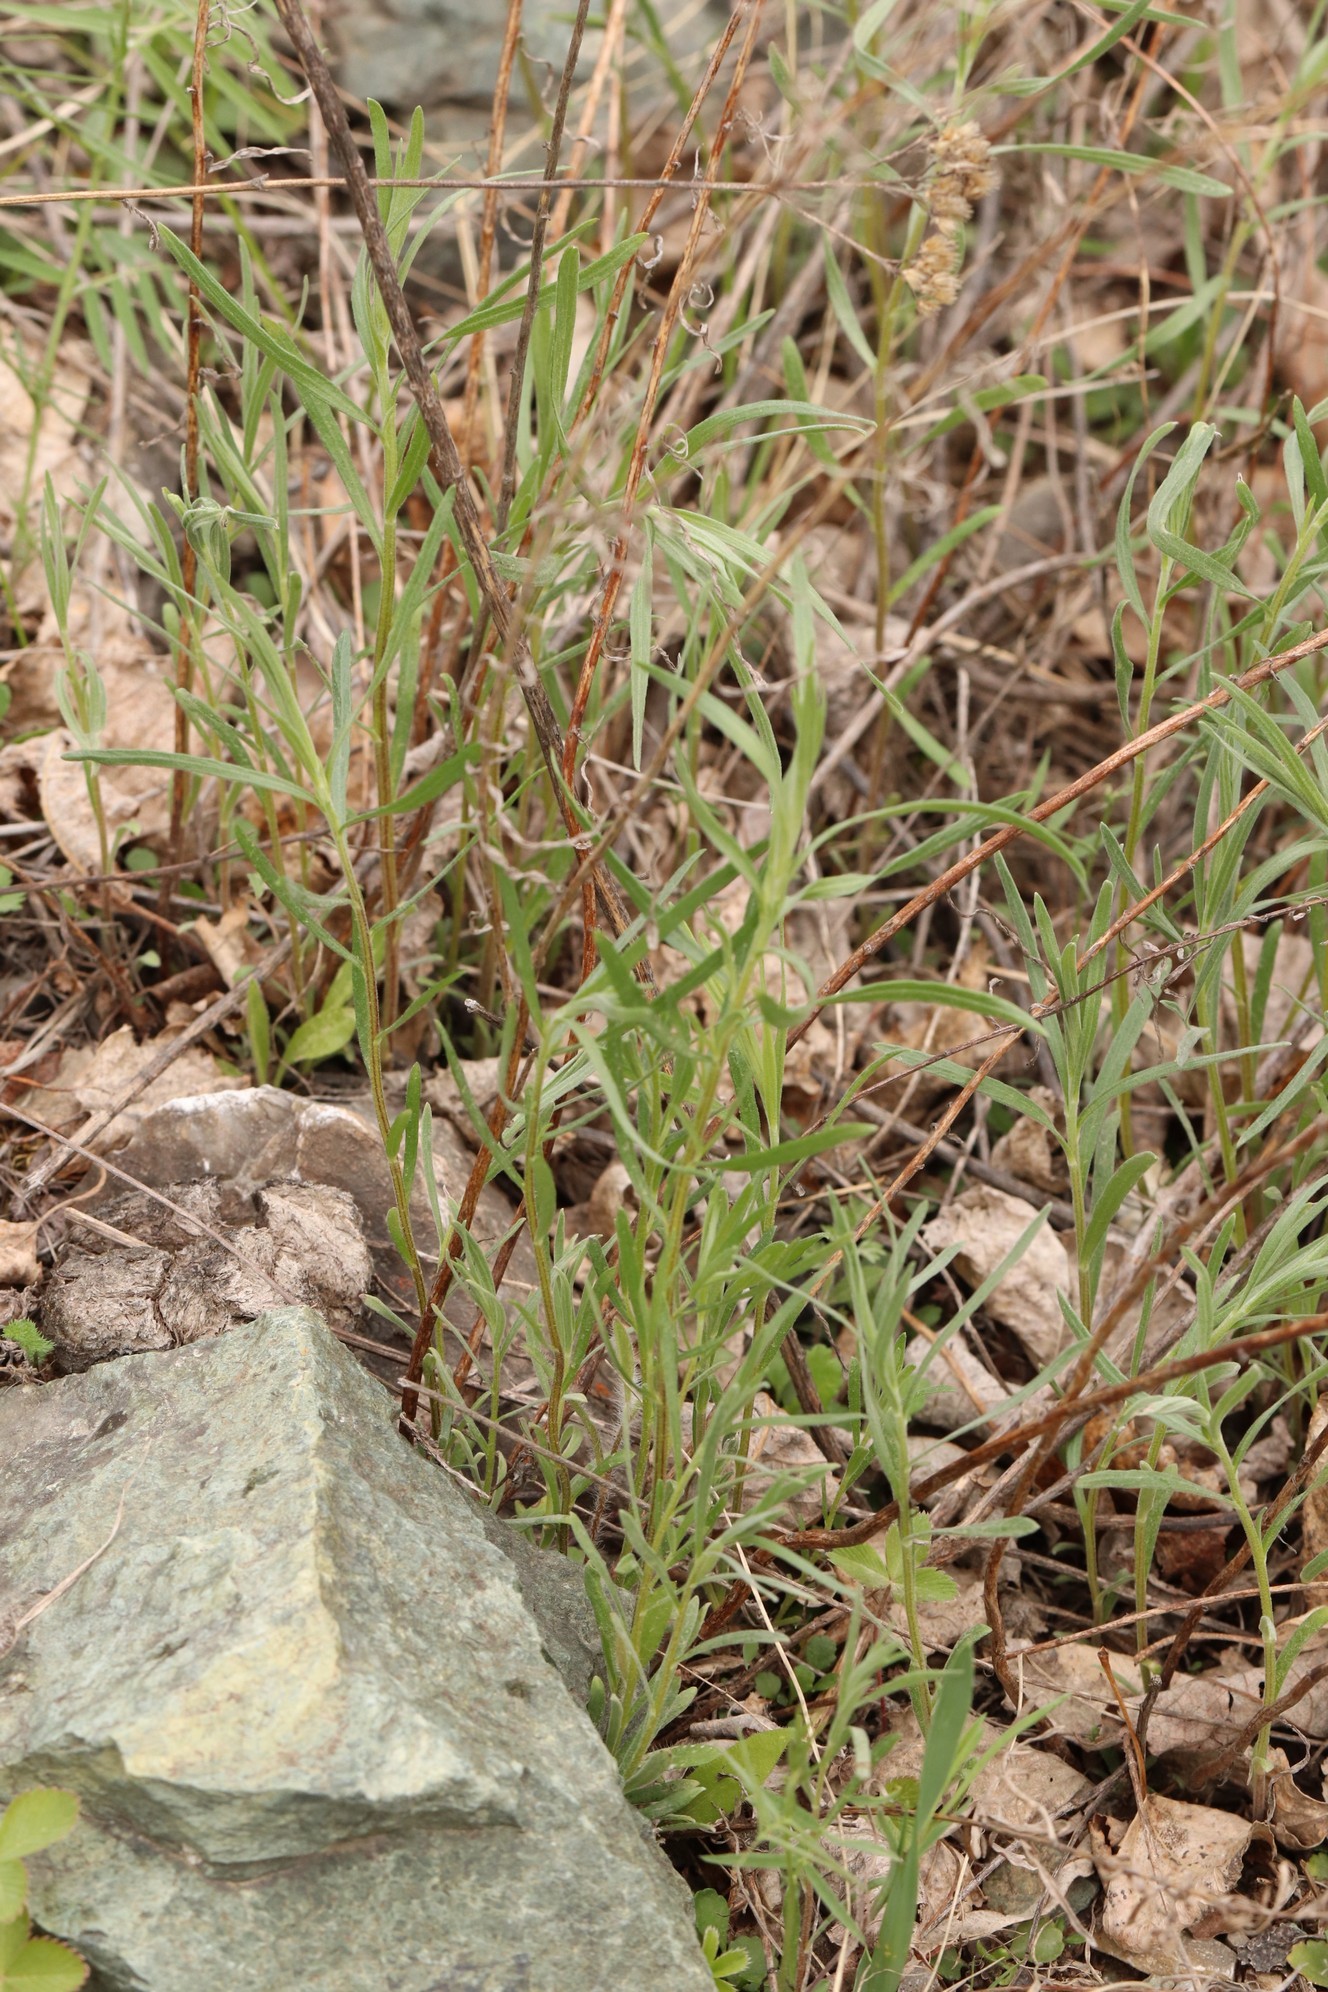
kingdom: Plantae
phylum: Tracheophyta
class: Magnoliopsida
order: Asterales
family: Asteraceae
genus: Artemisia
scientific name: Artemisia dracunculus
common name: Tarragon
